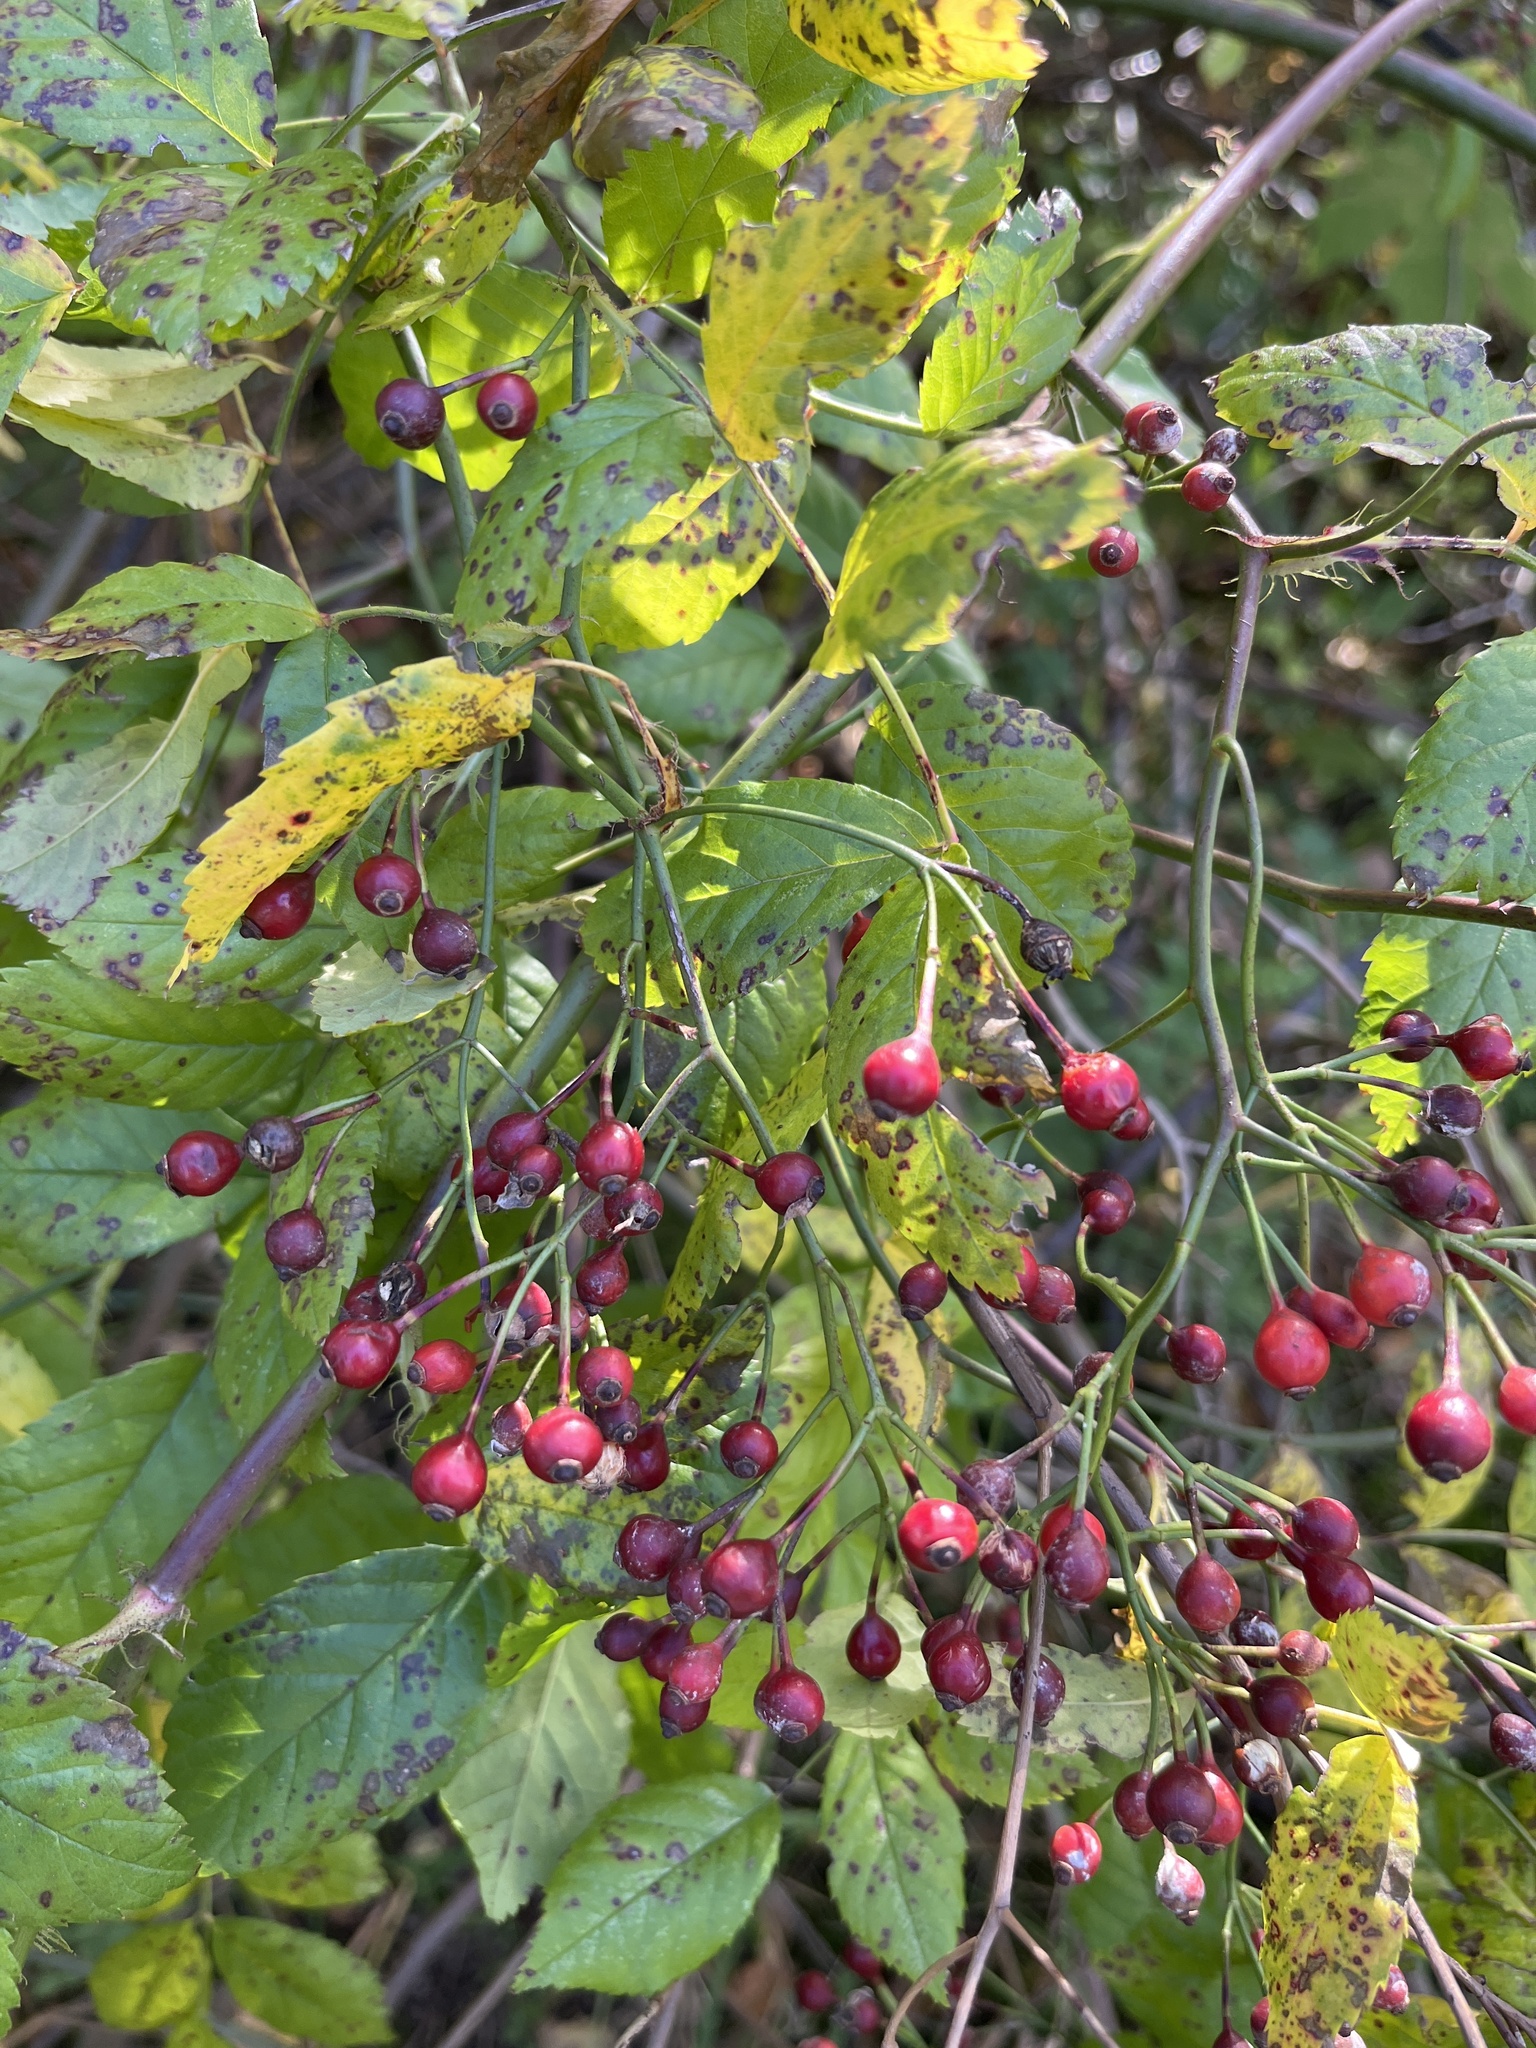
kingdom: Plantae
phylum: Tracheophyta
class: Magnoliopsida
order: Rosales
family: Rosaceae
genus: Rosa
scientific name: Rosa multiflora
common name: Multiflora rose
